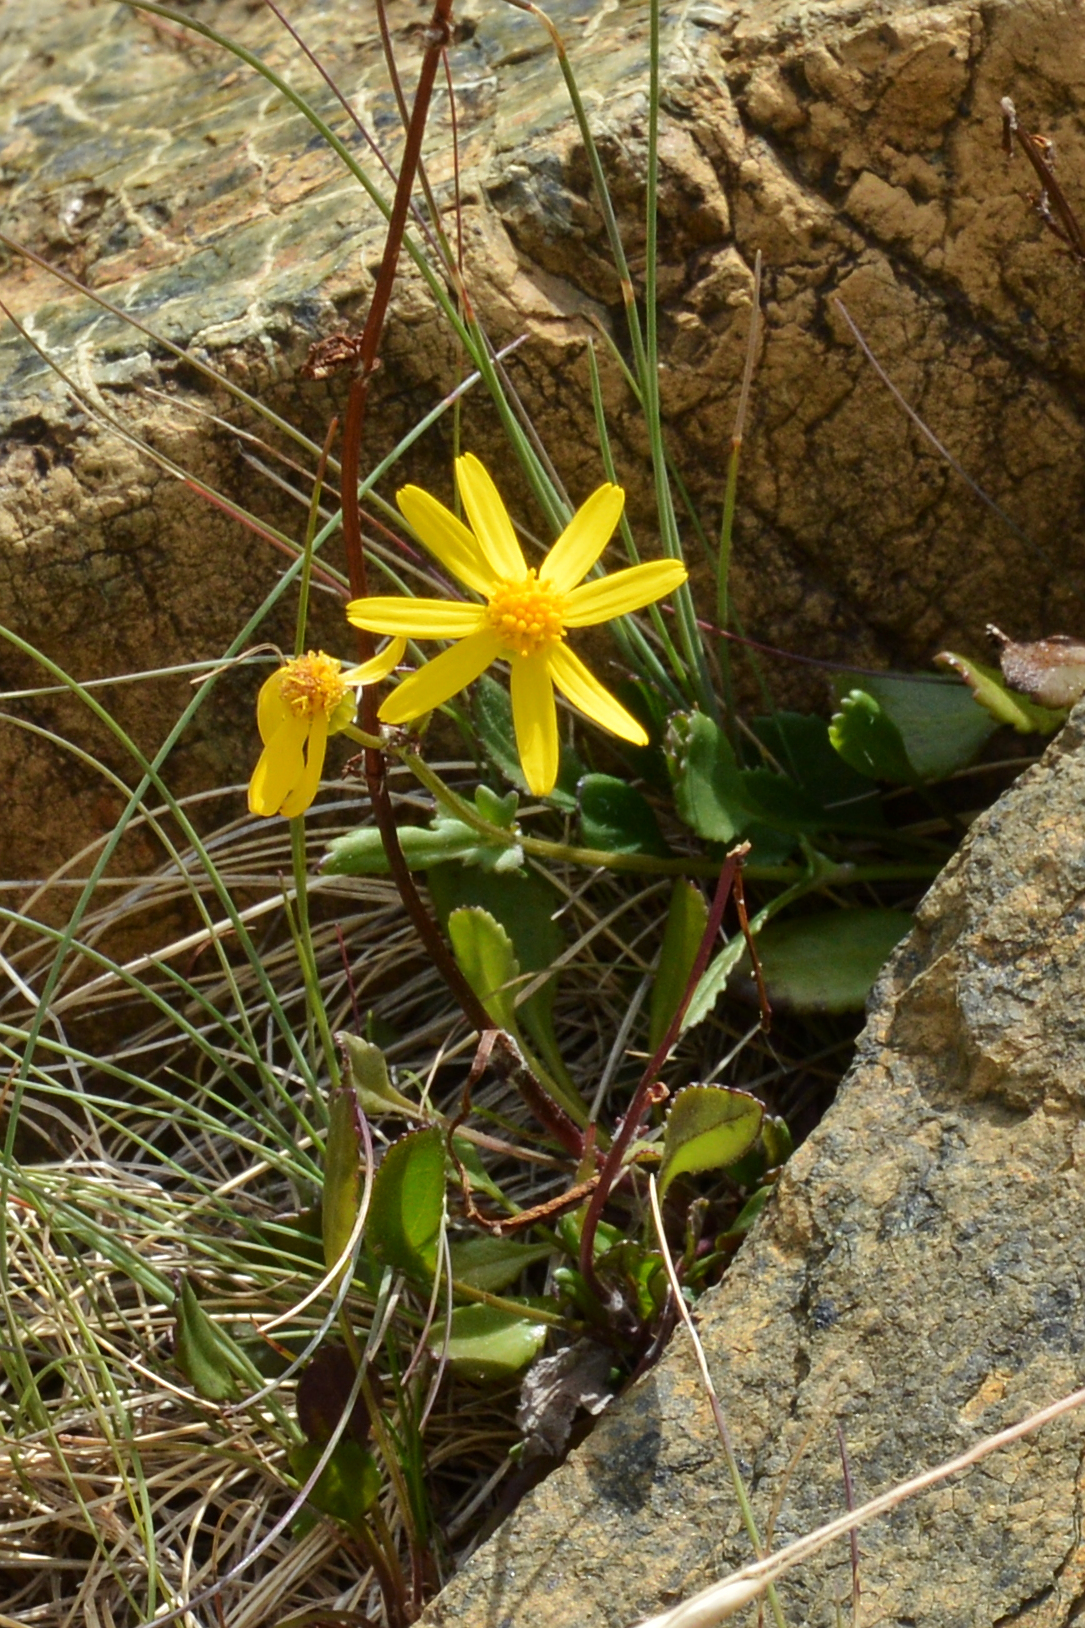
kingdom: Plantae
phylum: Tracheophyta
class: Magnoliopsida
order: Asterales
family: Asteraceae
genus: Packera
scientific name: Packera paupercula
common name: Balsam groundsel
